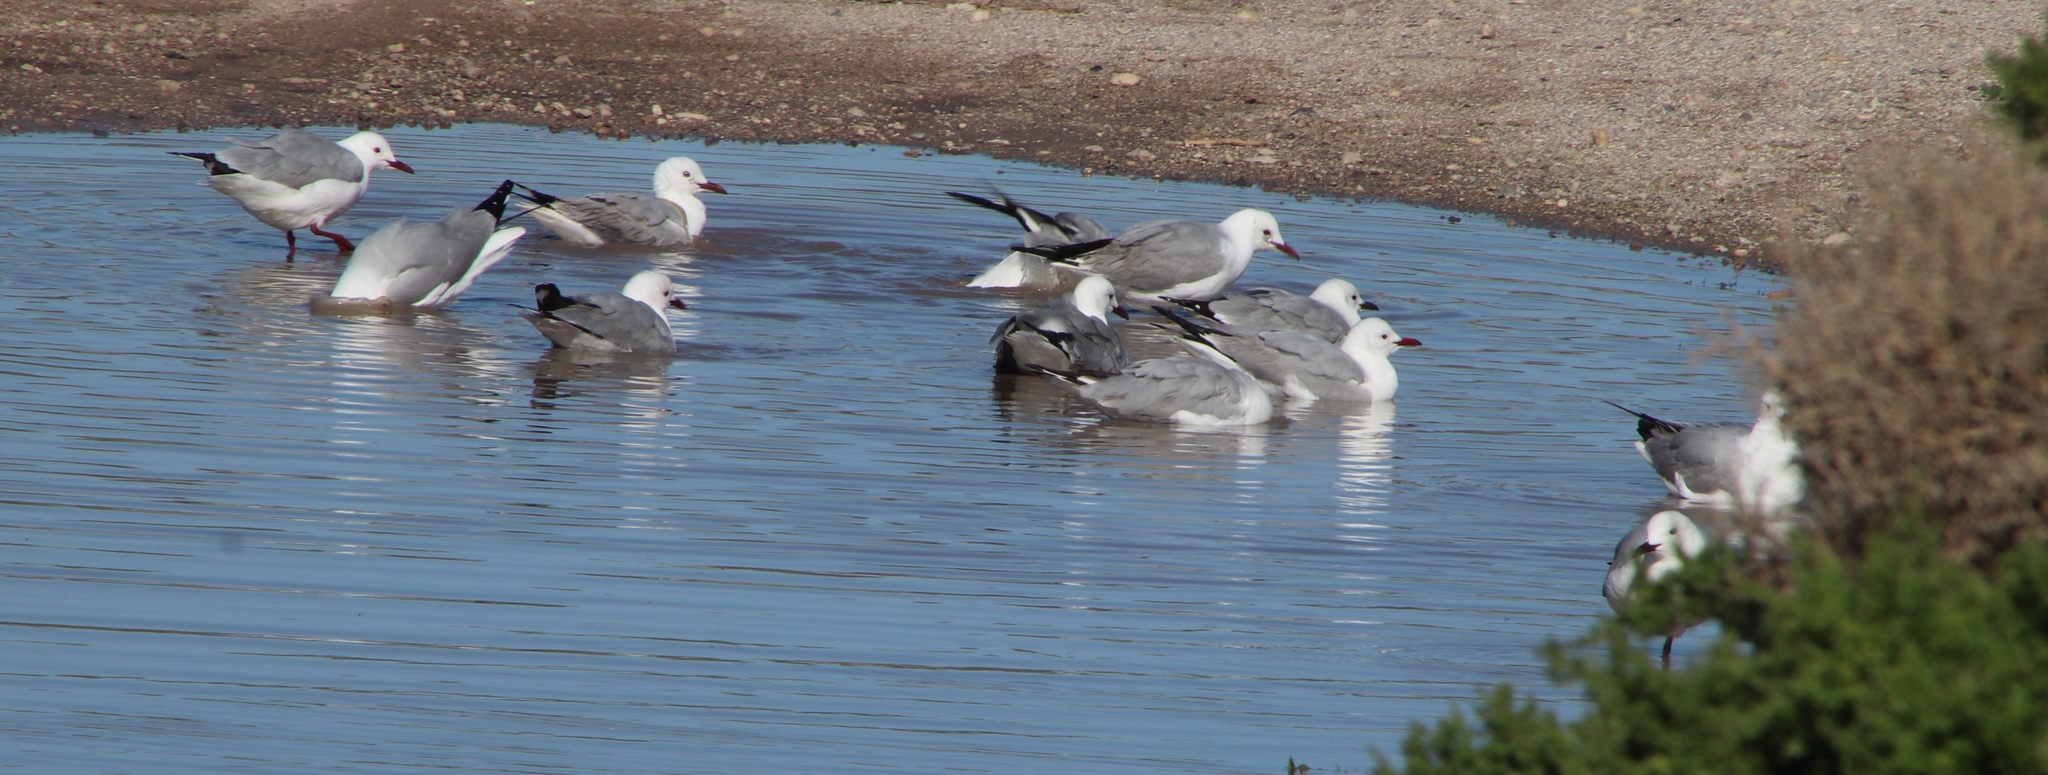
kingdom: Animalia
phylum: Chordata
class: Aves
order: Charadriiformes
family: Laridae
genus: Chroicocephalus
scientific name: Chroicocephalus hartlaubii
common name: Hartlaub's gull
